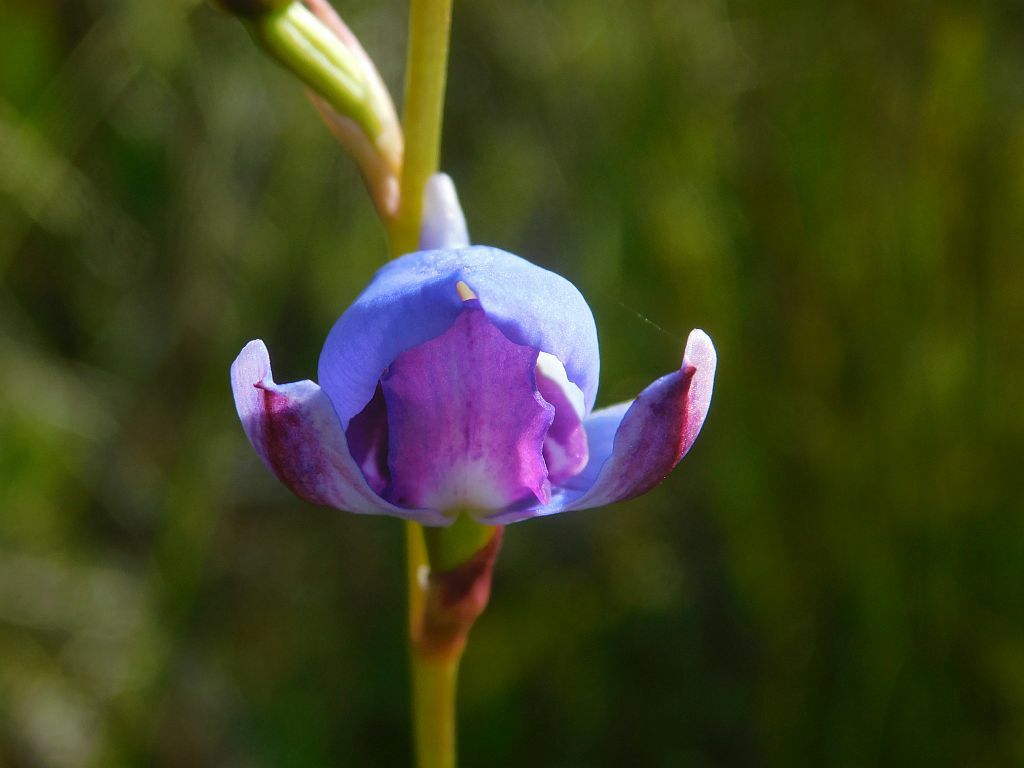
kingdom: Plantae
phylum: Tracheophyta
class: Liliopsida
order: Asparagales
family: Orchidaceae
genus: Disa
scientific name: Disa graminifolia
